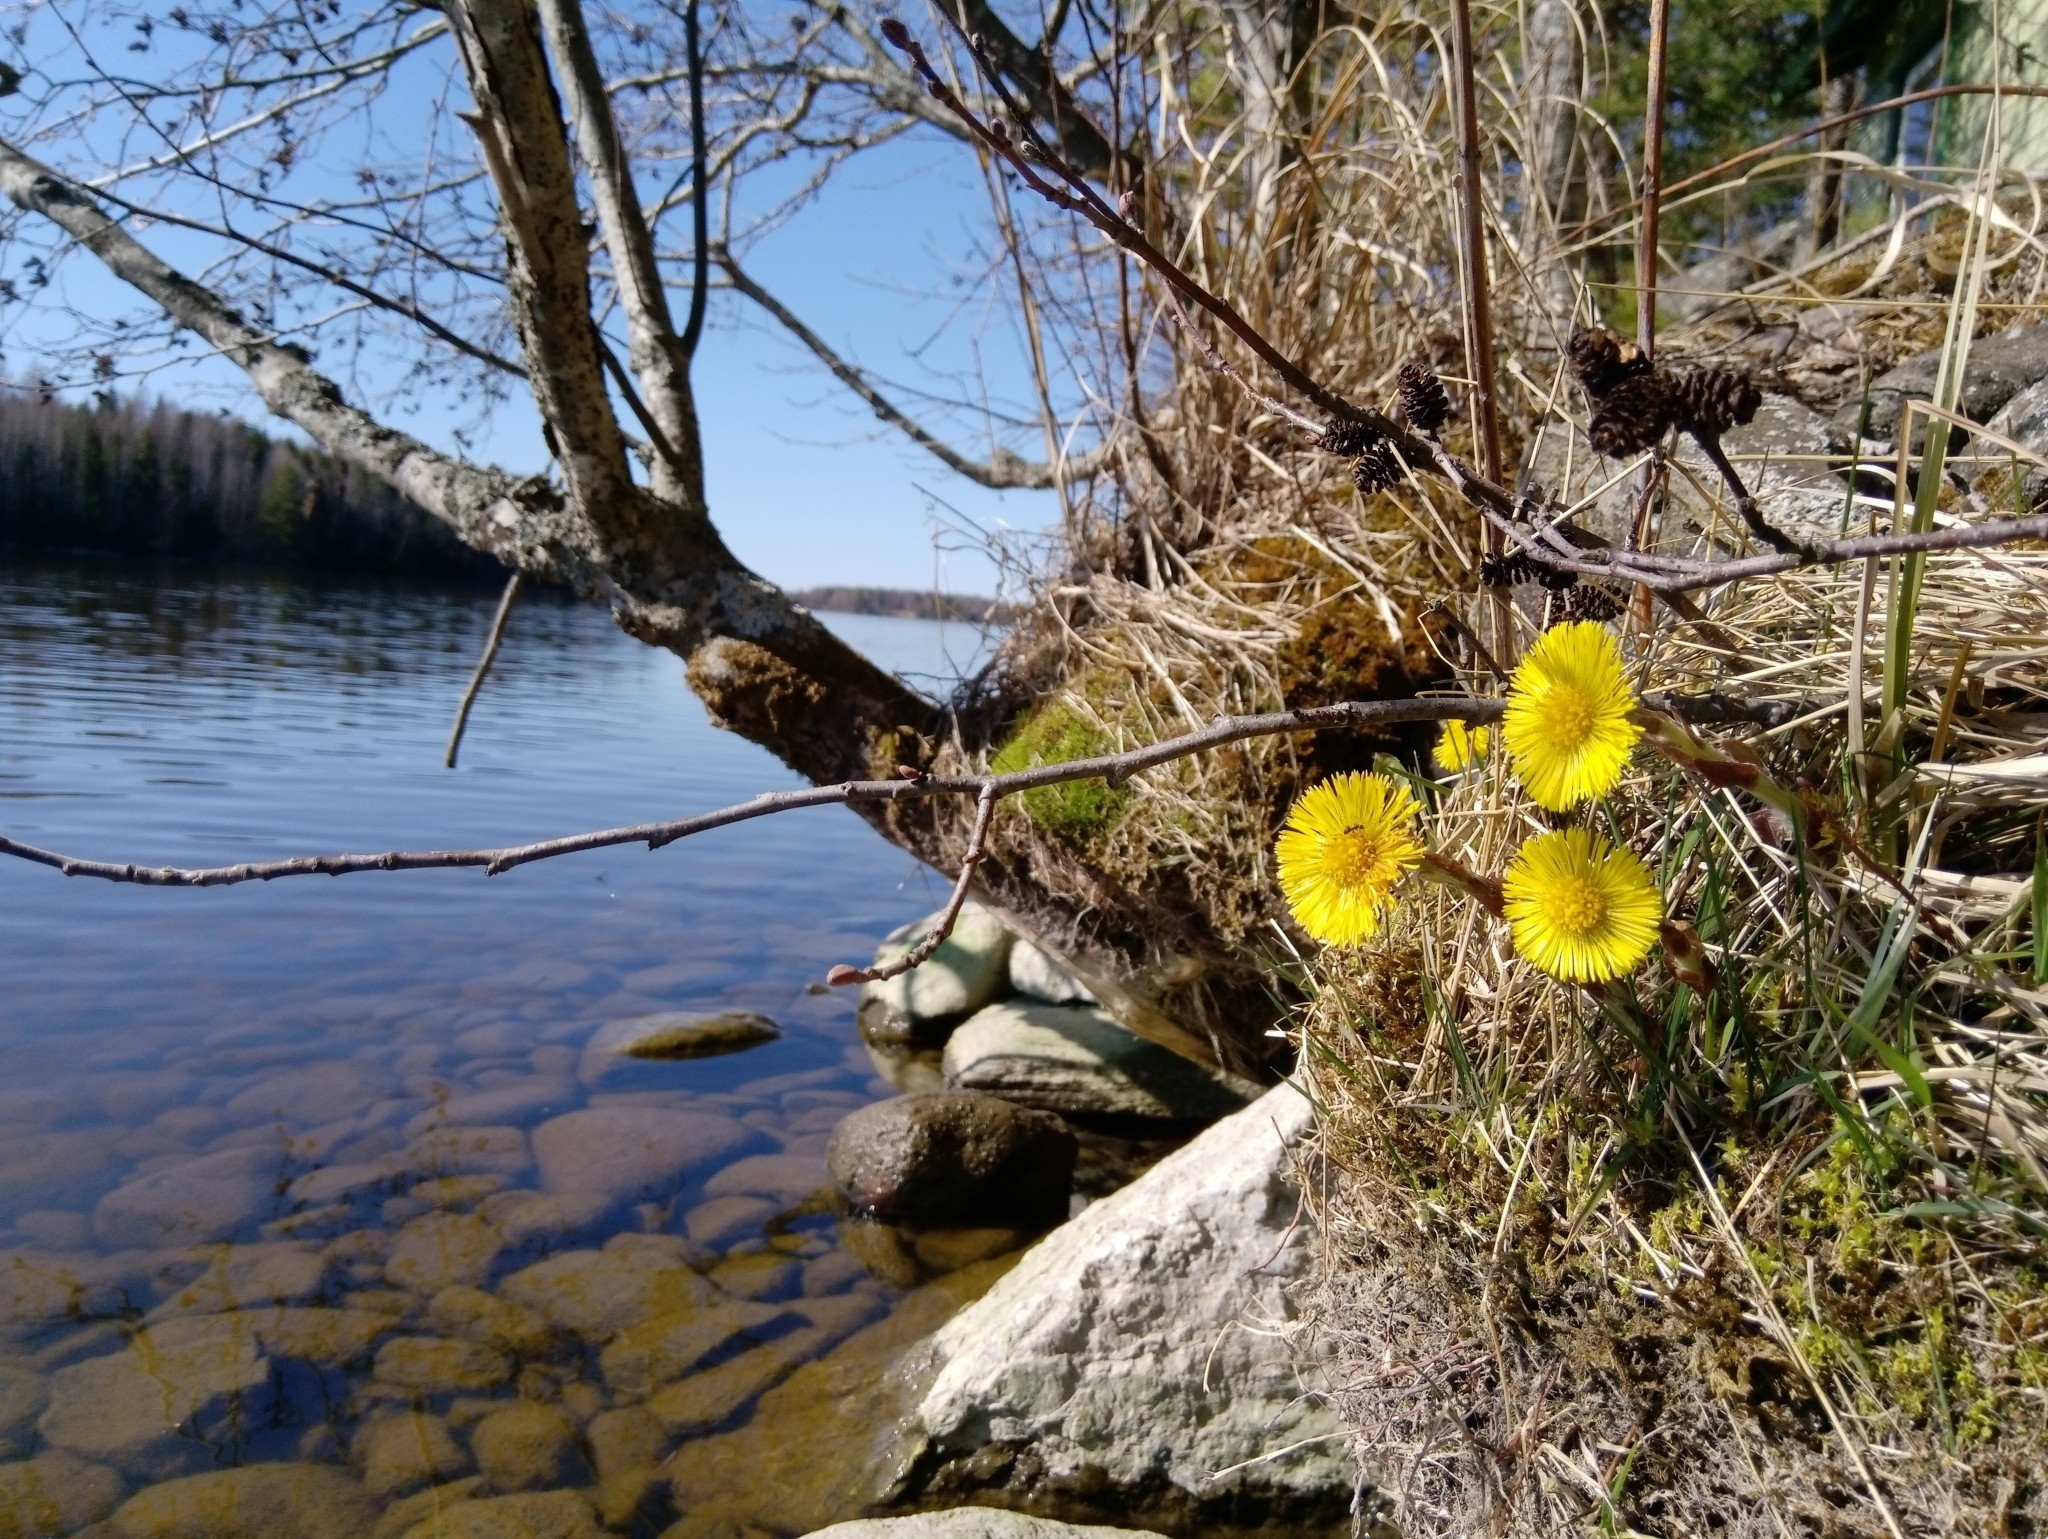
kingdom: Plantae
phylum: Tracheophyta
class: Magnoliopsida
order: Asterales
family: Asteraceae
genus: Tussilago
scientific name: Tussilago farfara
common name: Coltsfoot
